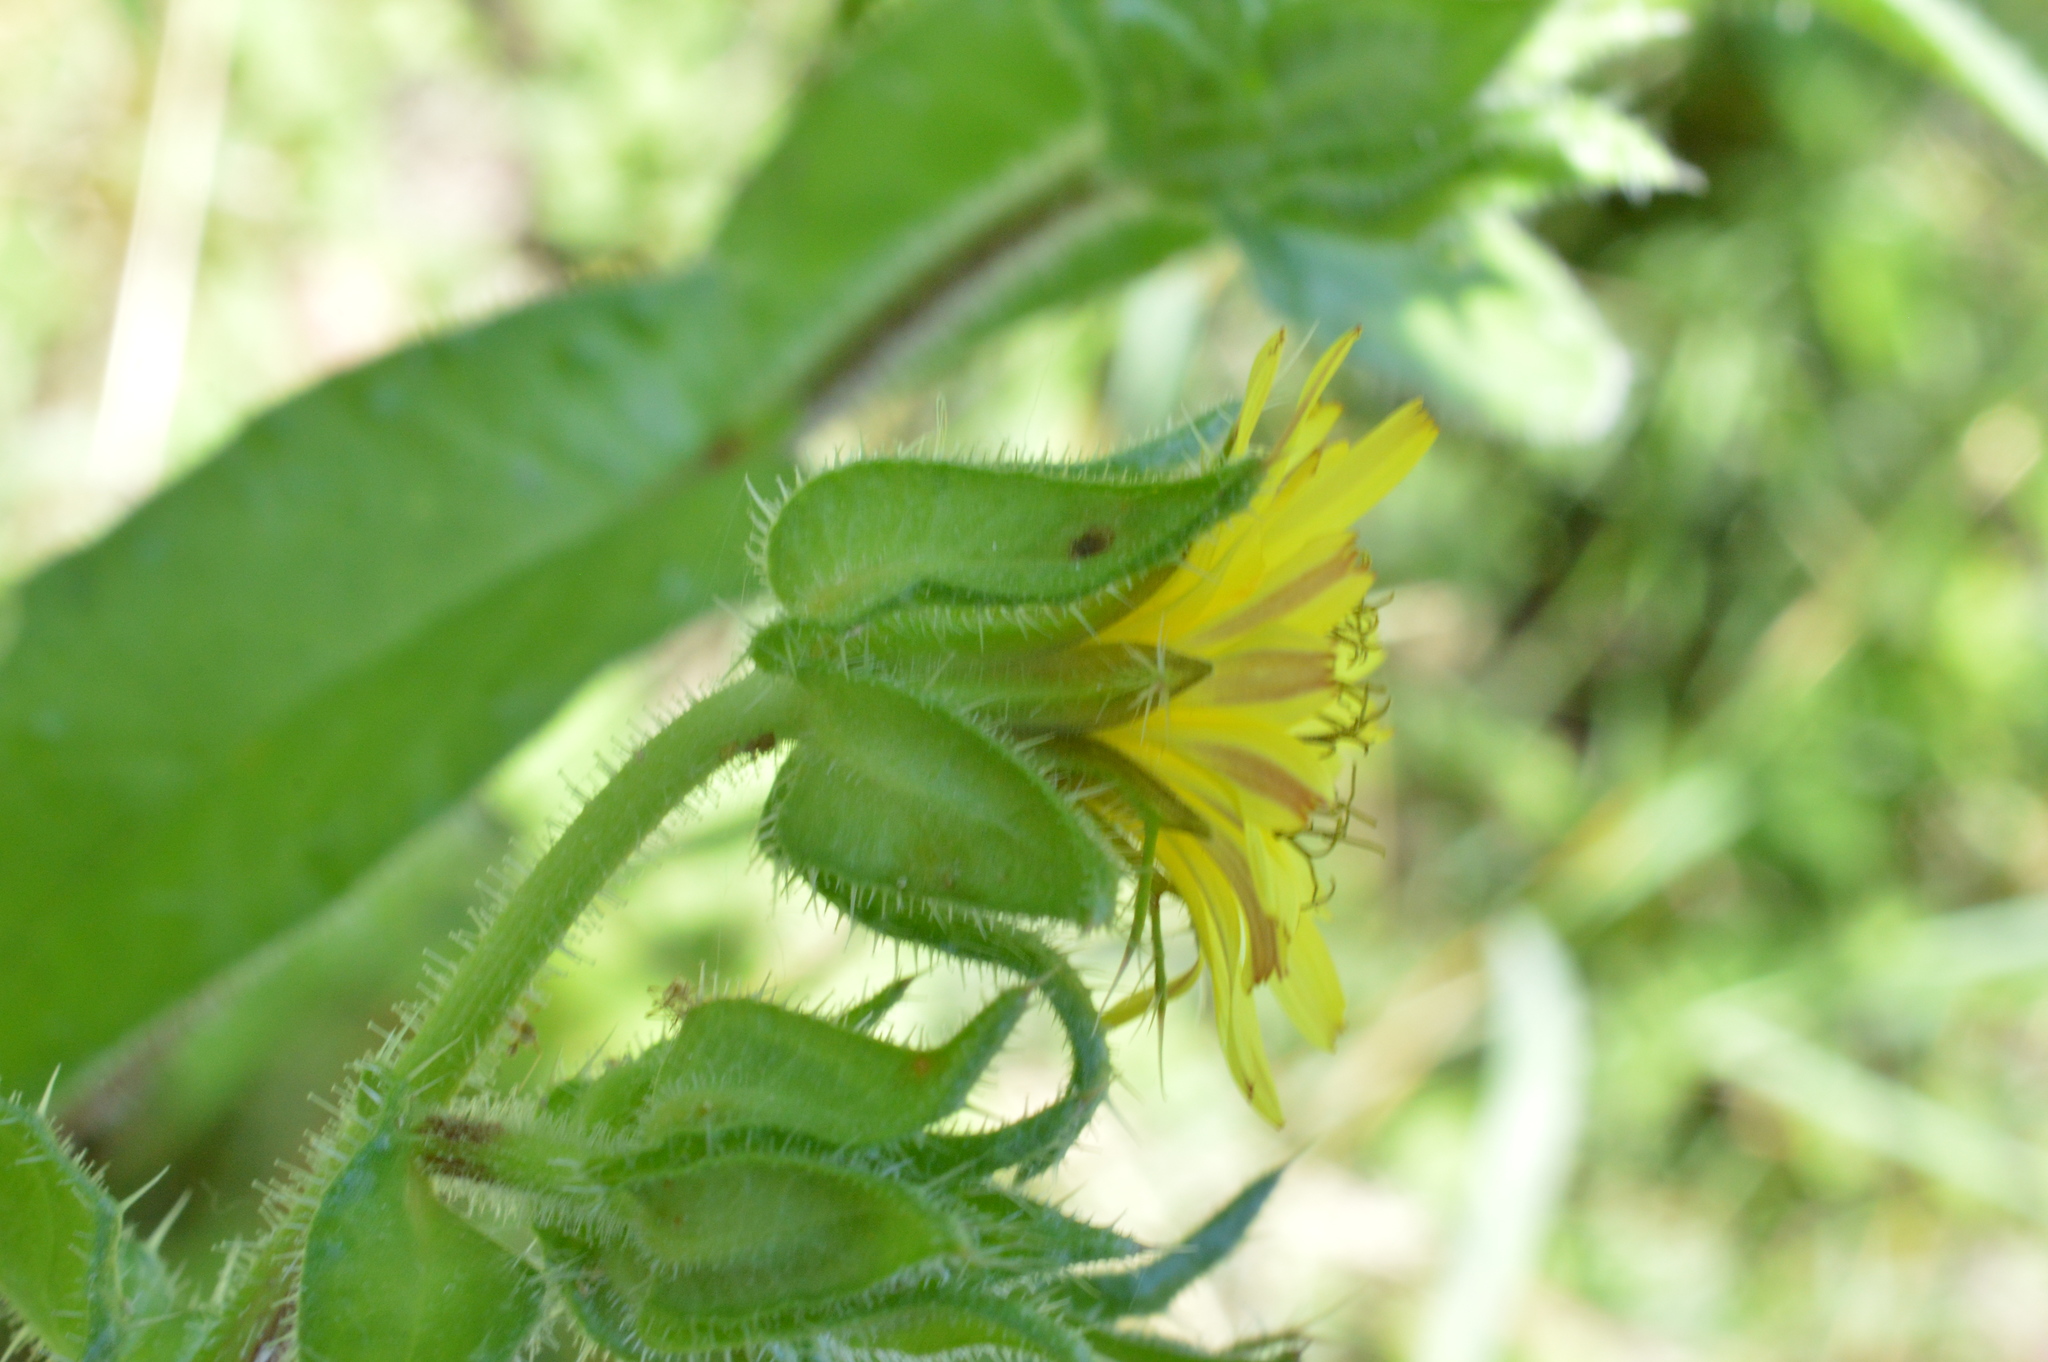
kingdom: Plantae
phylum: Tracheophyta
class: Magnoliopsida
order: Asterales
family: Asteraceae
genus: Helminthotheca
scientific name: Helminthotheca echioides
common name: Ox-tongue
